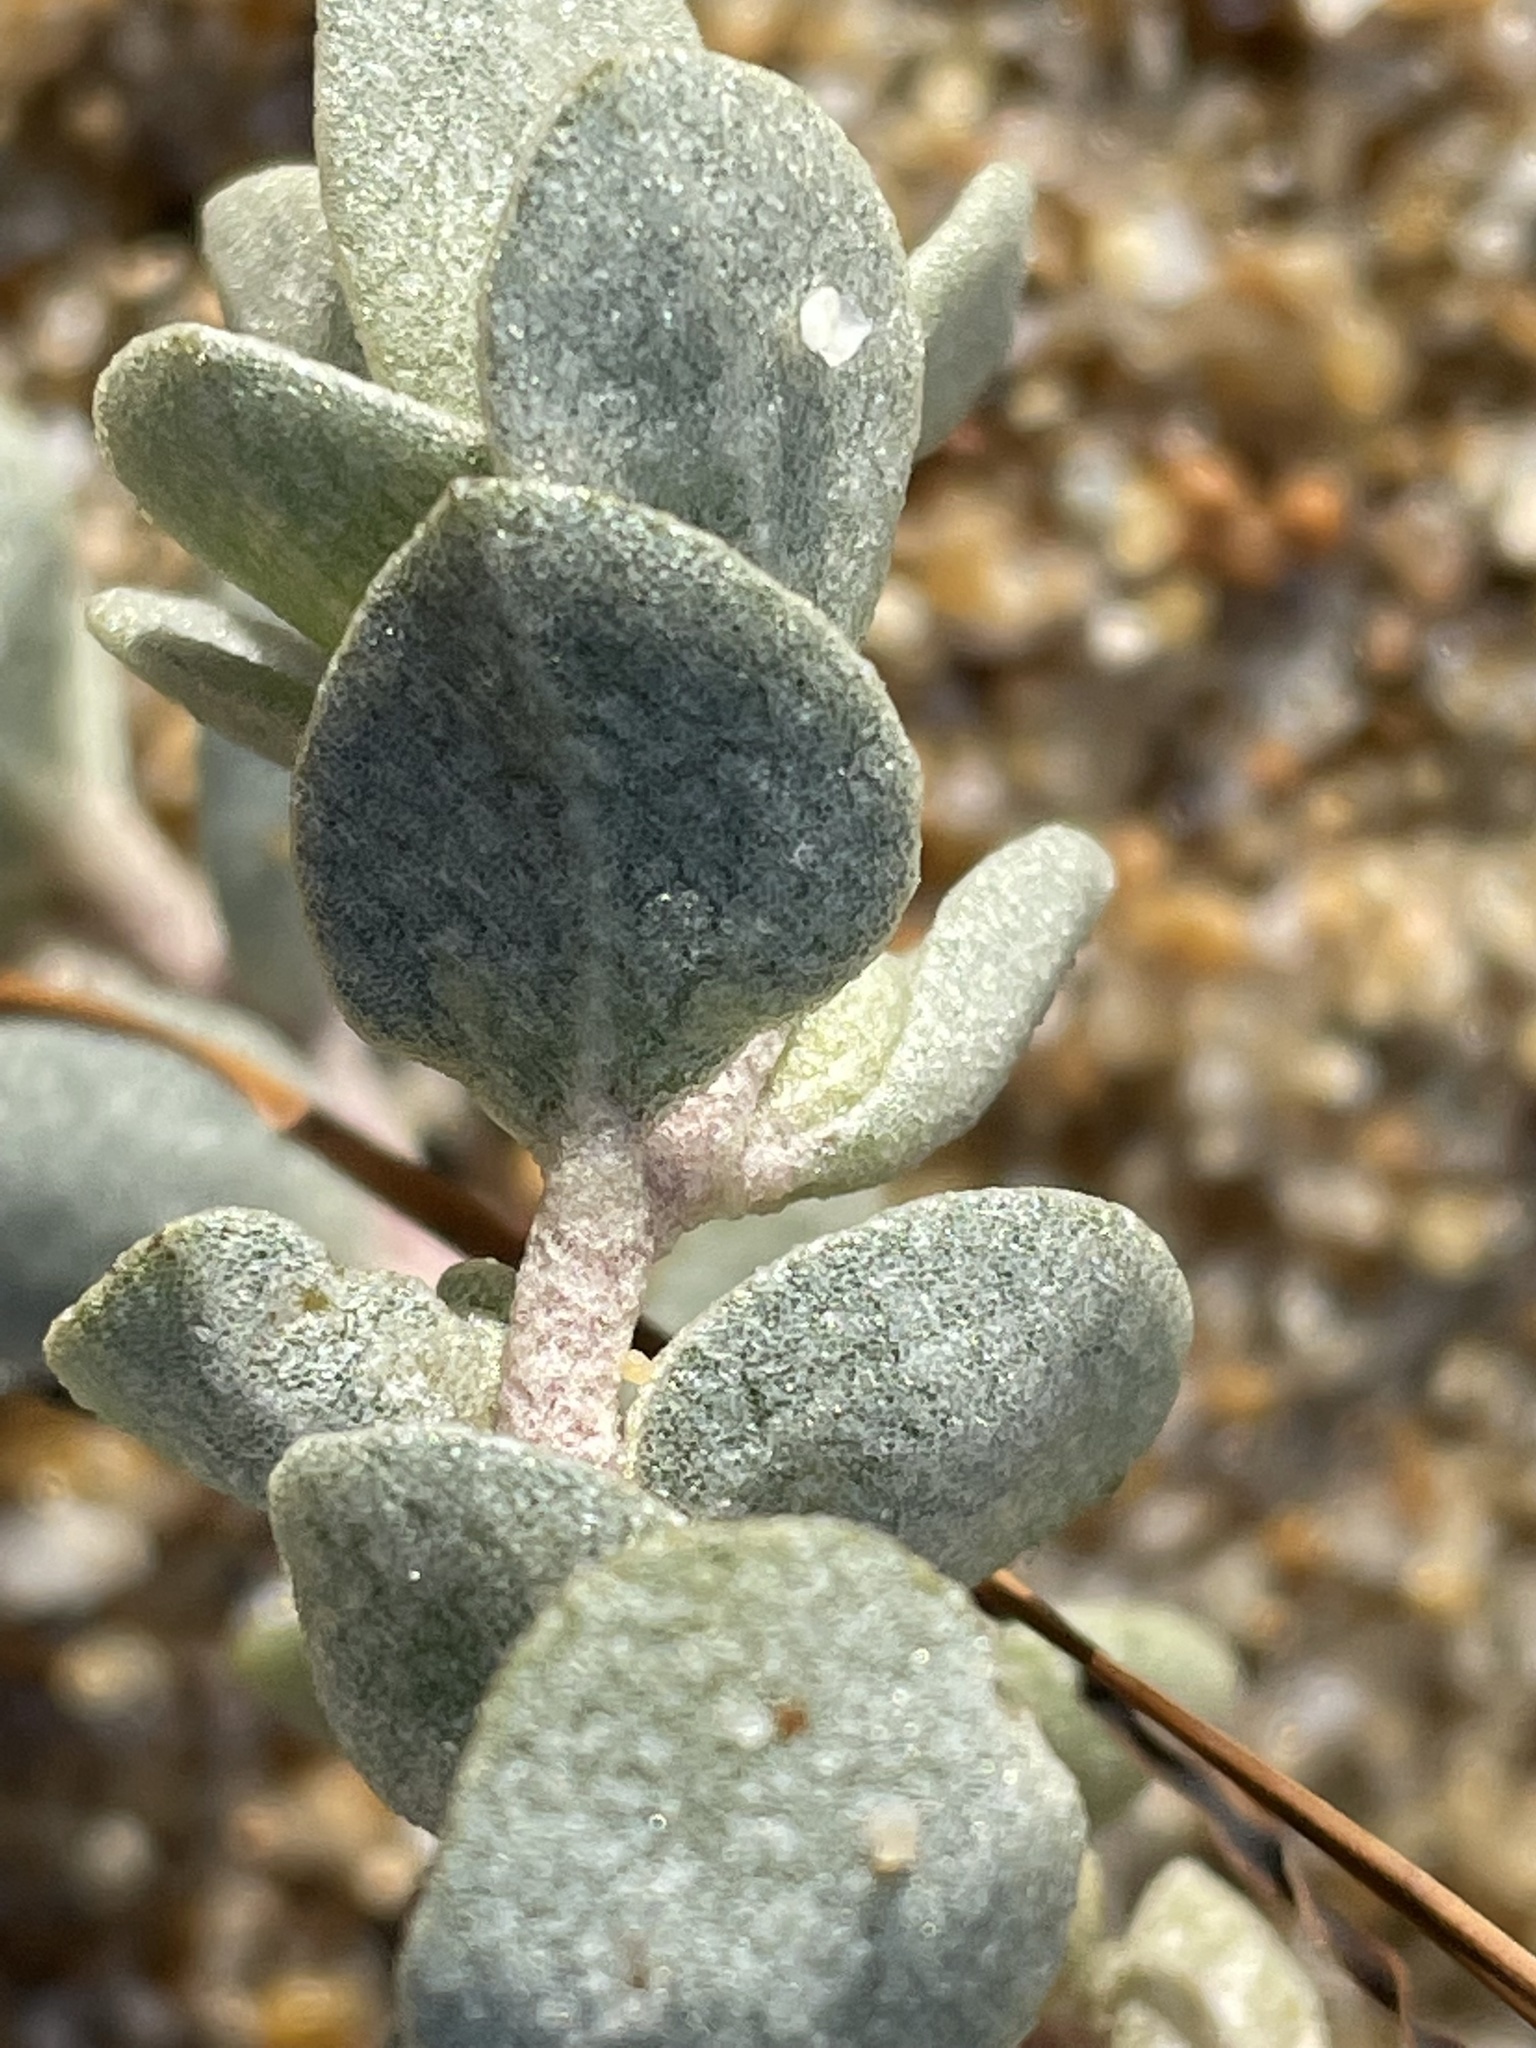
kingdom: Plantae
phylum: Tracheophyta
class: Magnoliopsida
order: Caryophyllales
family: Amaranthaceae
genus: Atriplex
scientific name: Atriplex leucophylla
